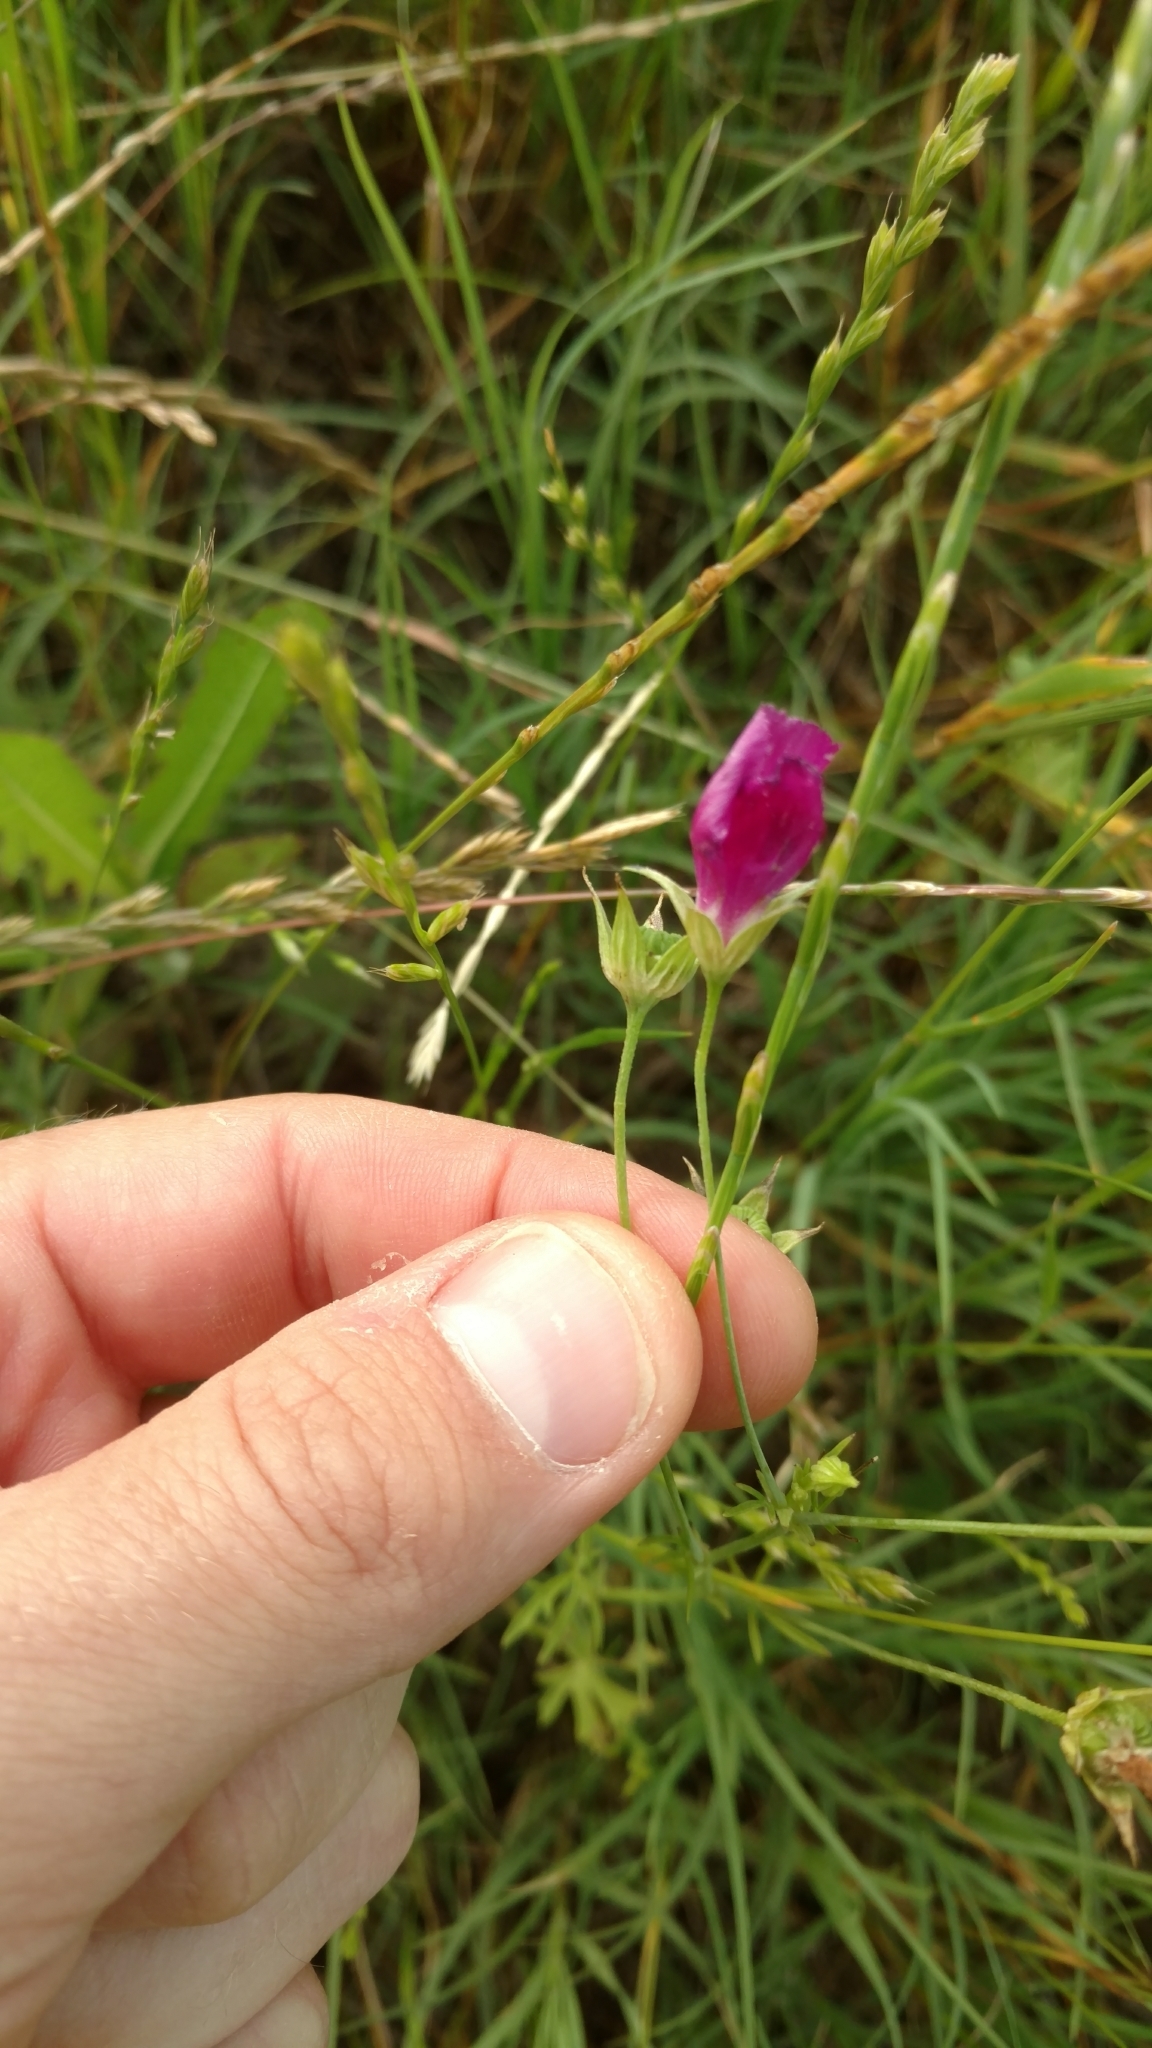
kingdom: Plantae
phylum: Tracheophyta
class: Magnoliopsida
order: Malvales
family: Malvaceae
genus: Callirhoe
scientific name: Callirhoe leiocarpa
